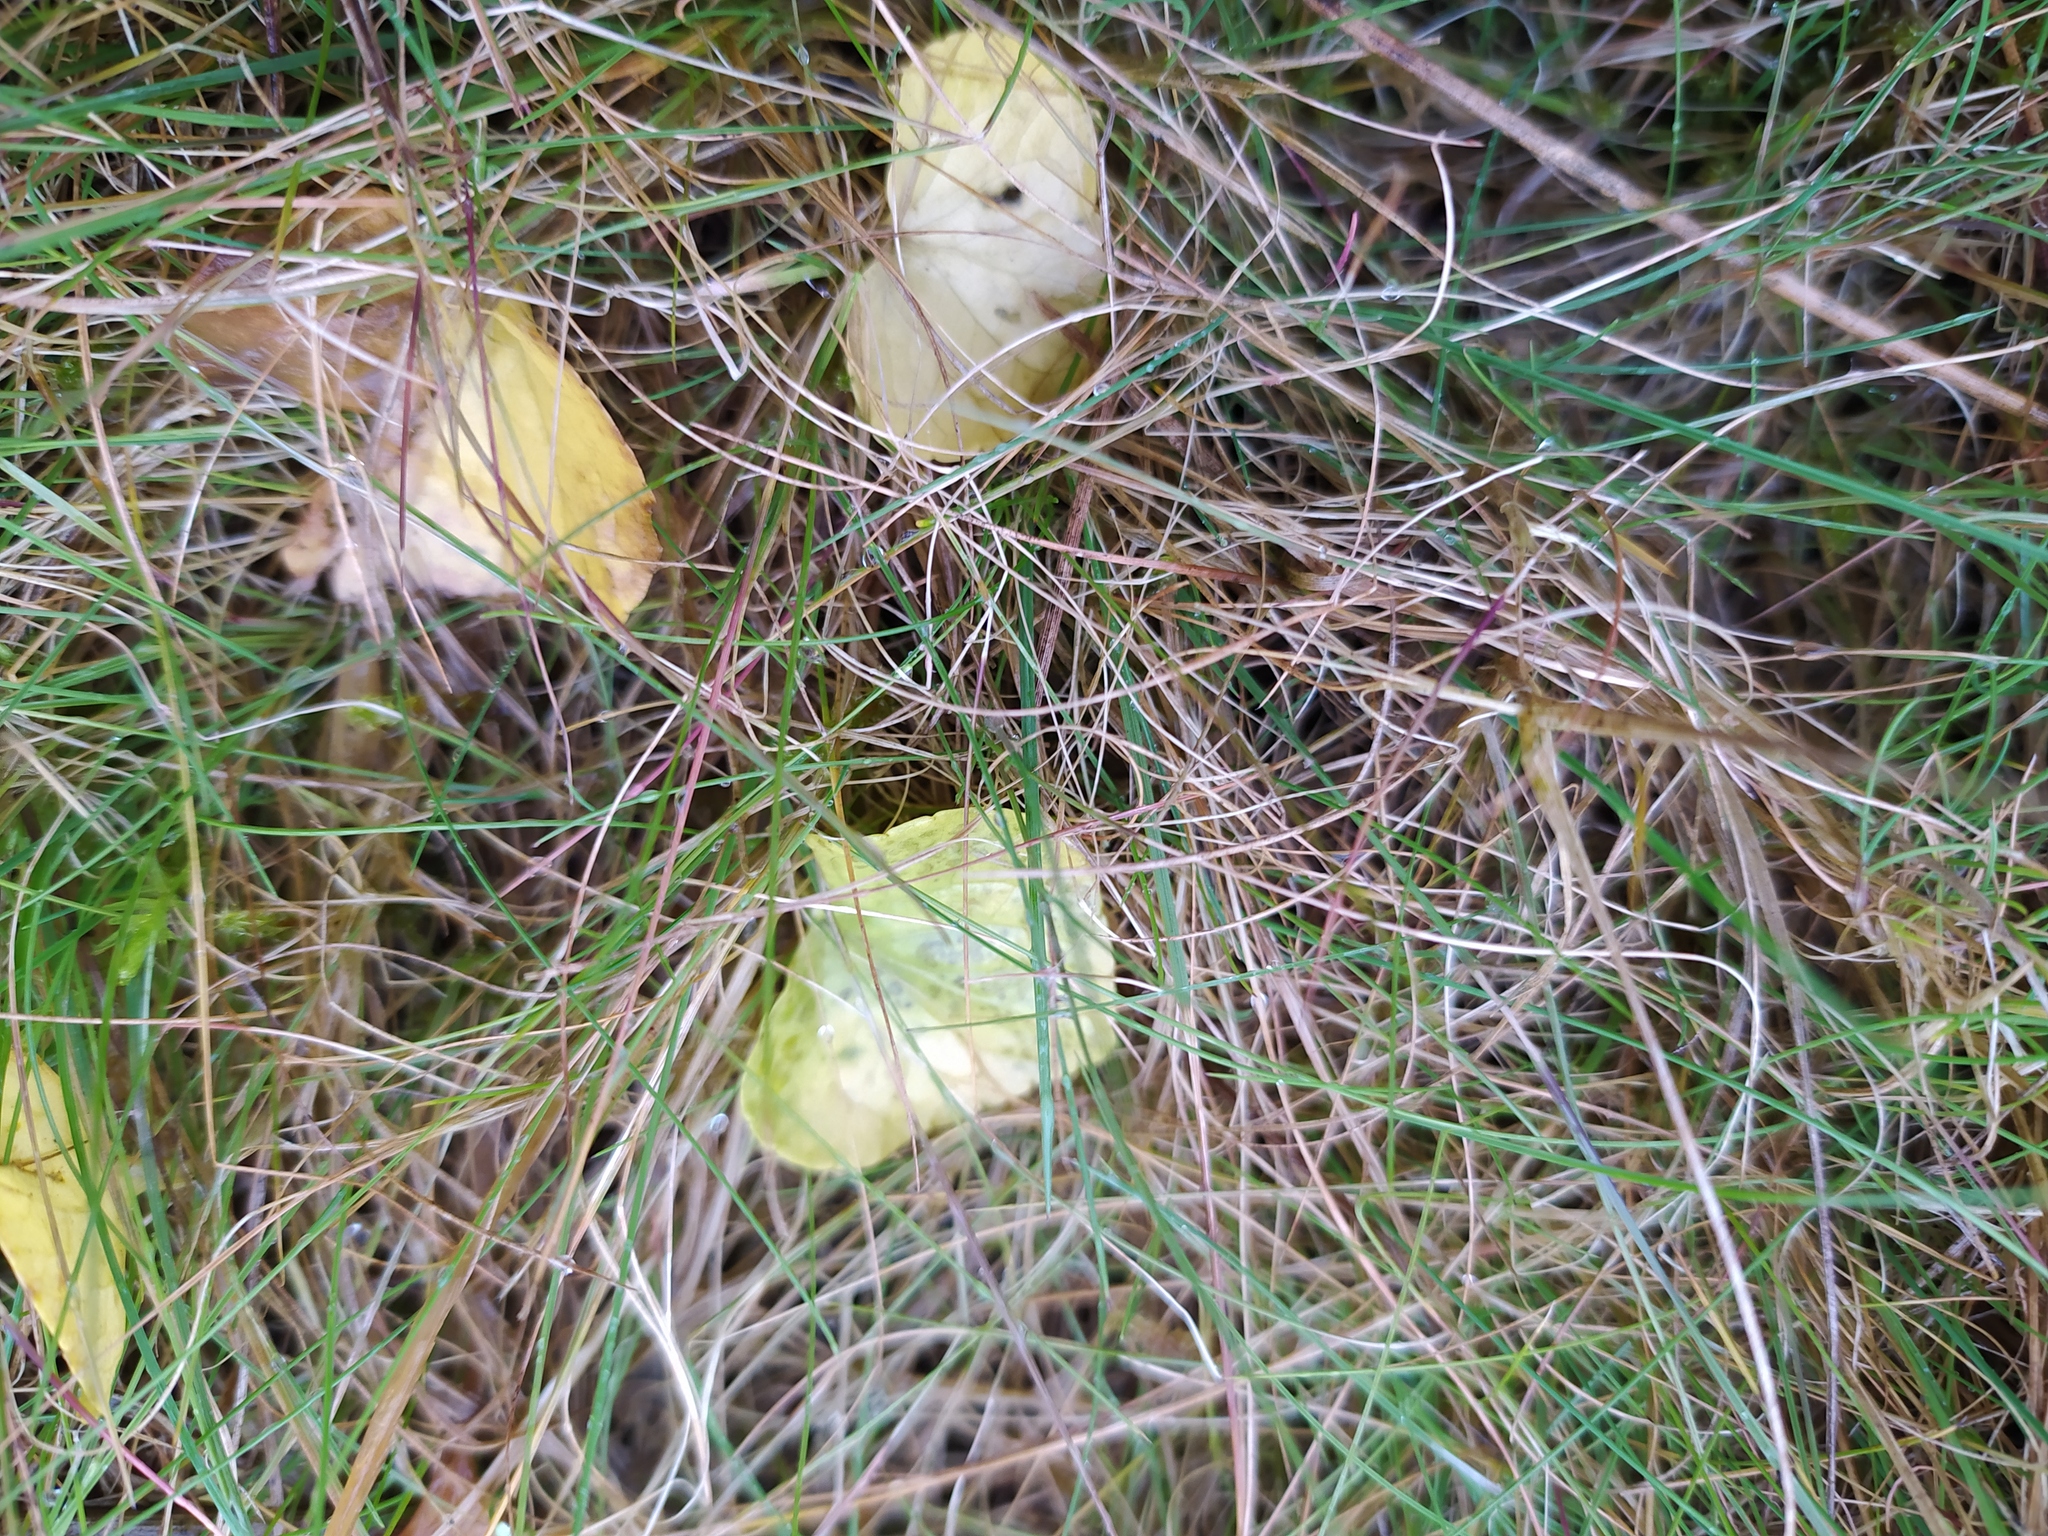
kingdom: Plantae
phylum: Tracheophyta
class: Magnoliopsida
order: Malpighiales
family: Violaceae
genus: Viola
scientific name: Viola palustris
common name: Marsh violet
